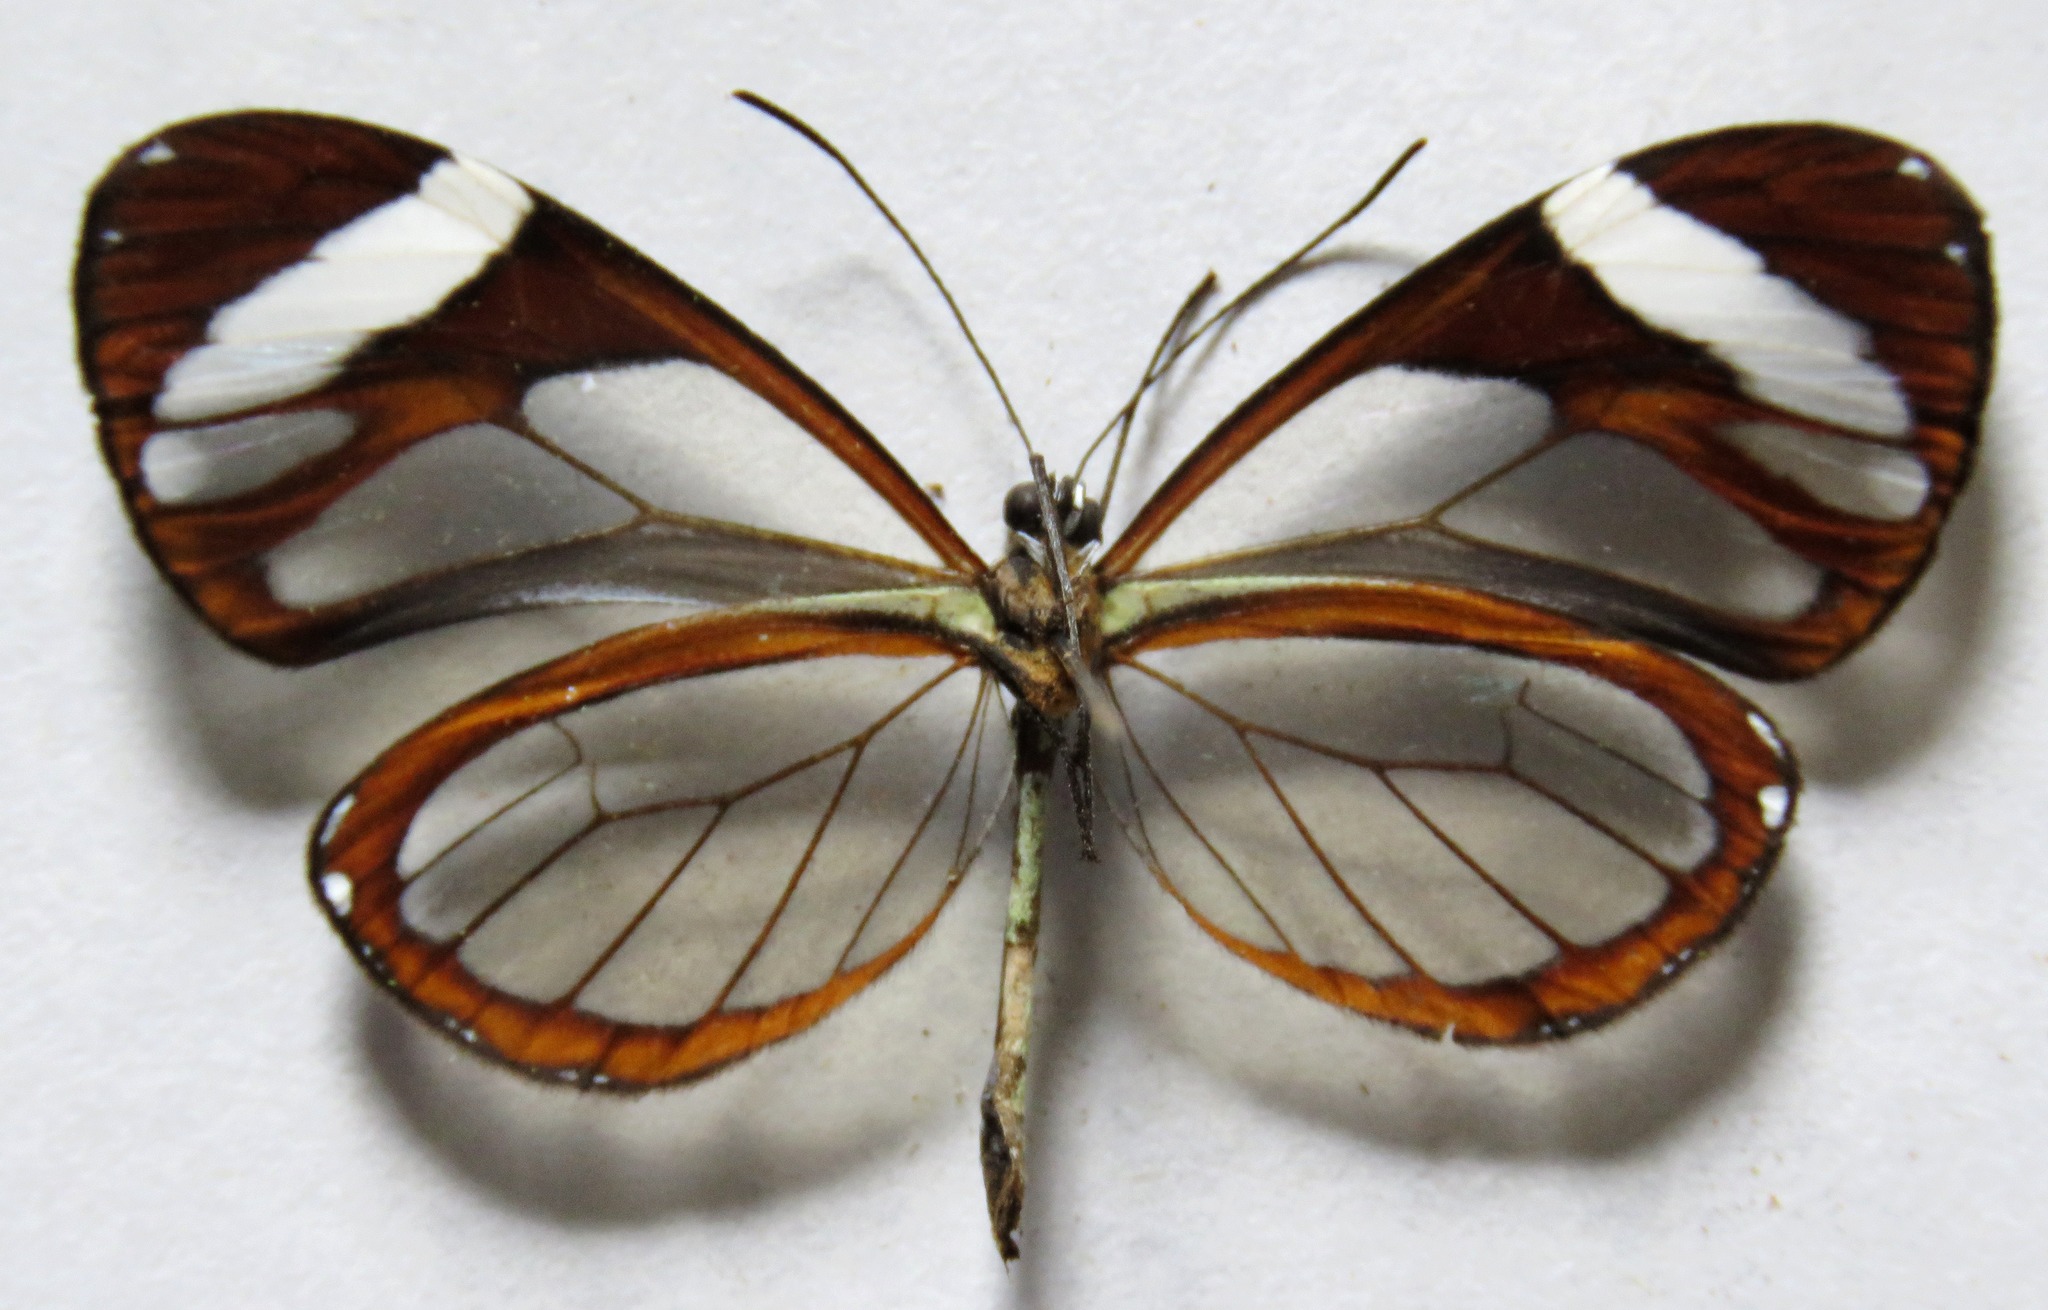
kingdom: Animalia
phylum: Arthropoda
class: Insecta
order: Lepidoptera
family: Nymphalidae
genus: Ithomia
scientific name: Ithomia patilla
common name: Patilla clearwing
